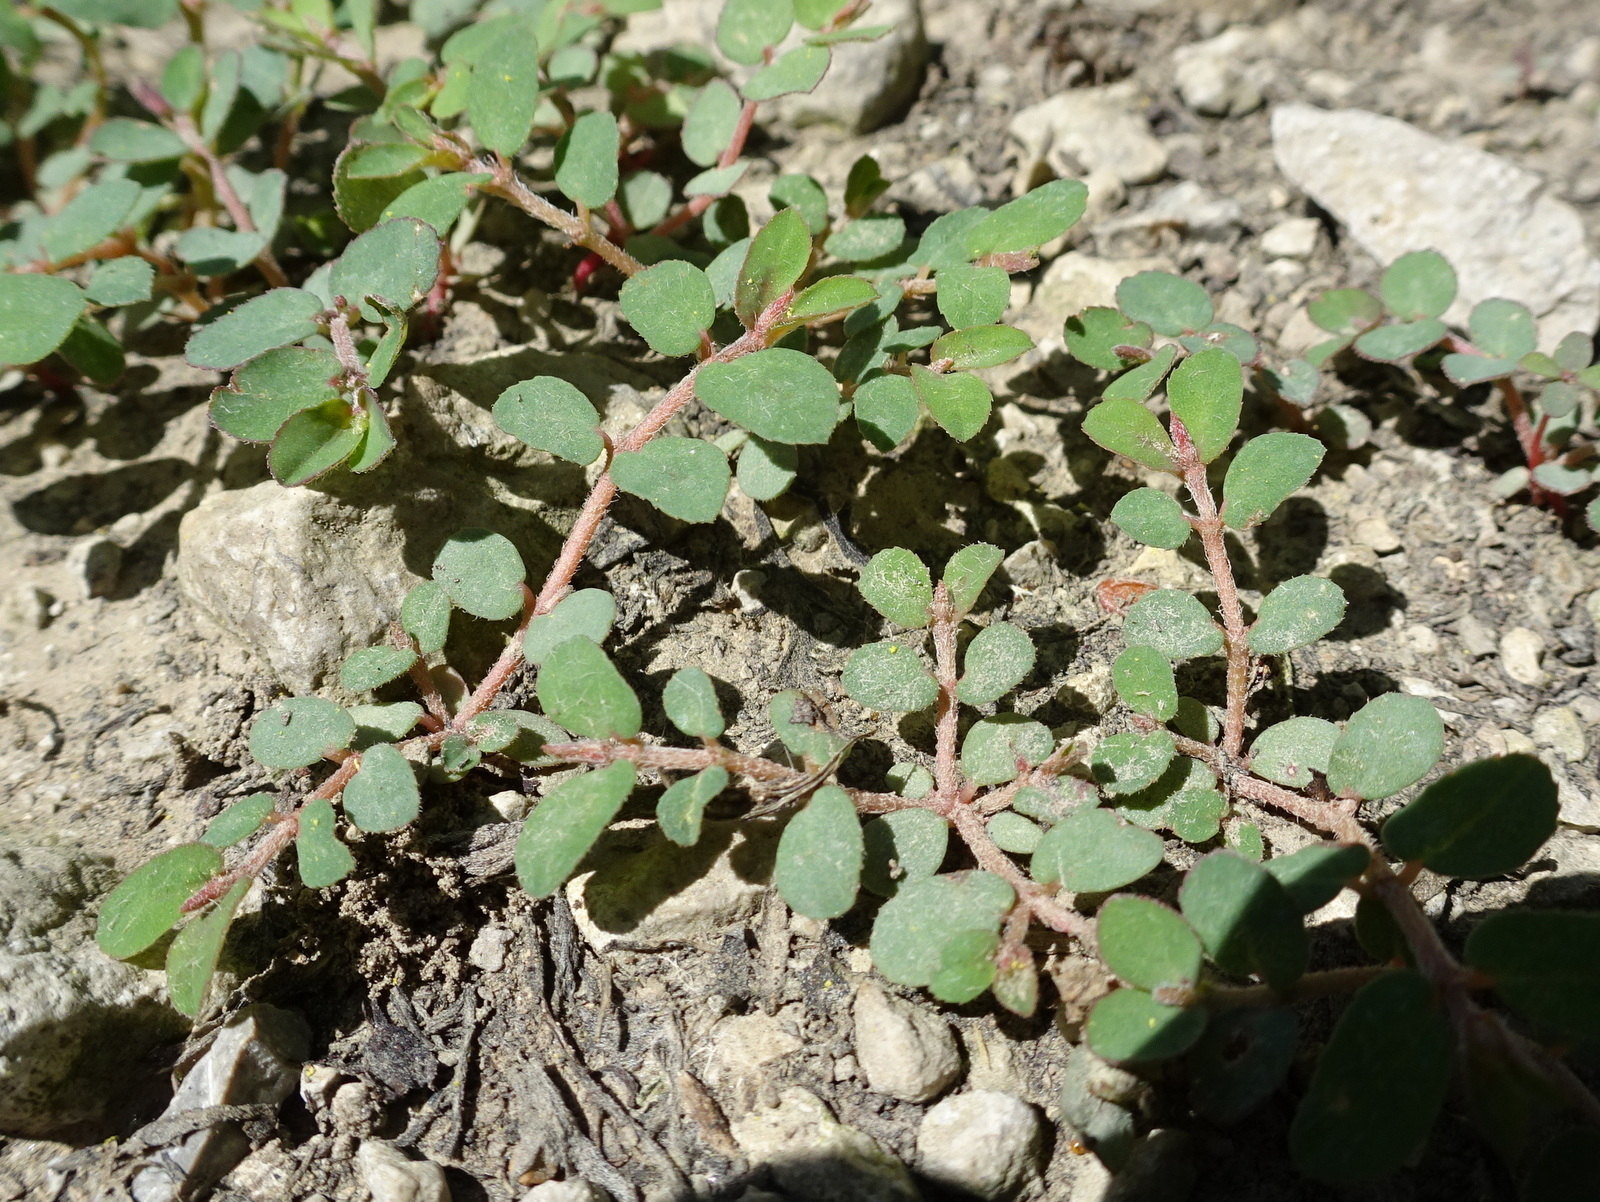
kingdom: Plantae
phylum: Tracheophyta
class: Magnoliopsida
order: Malpighiales
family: Euphorbiaceae
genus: Euphorbia
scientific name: Euphorbia maculata
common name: Spotted spurge
